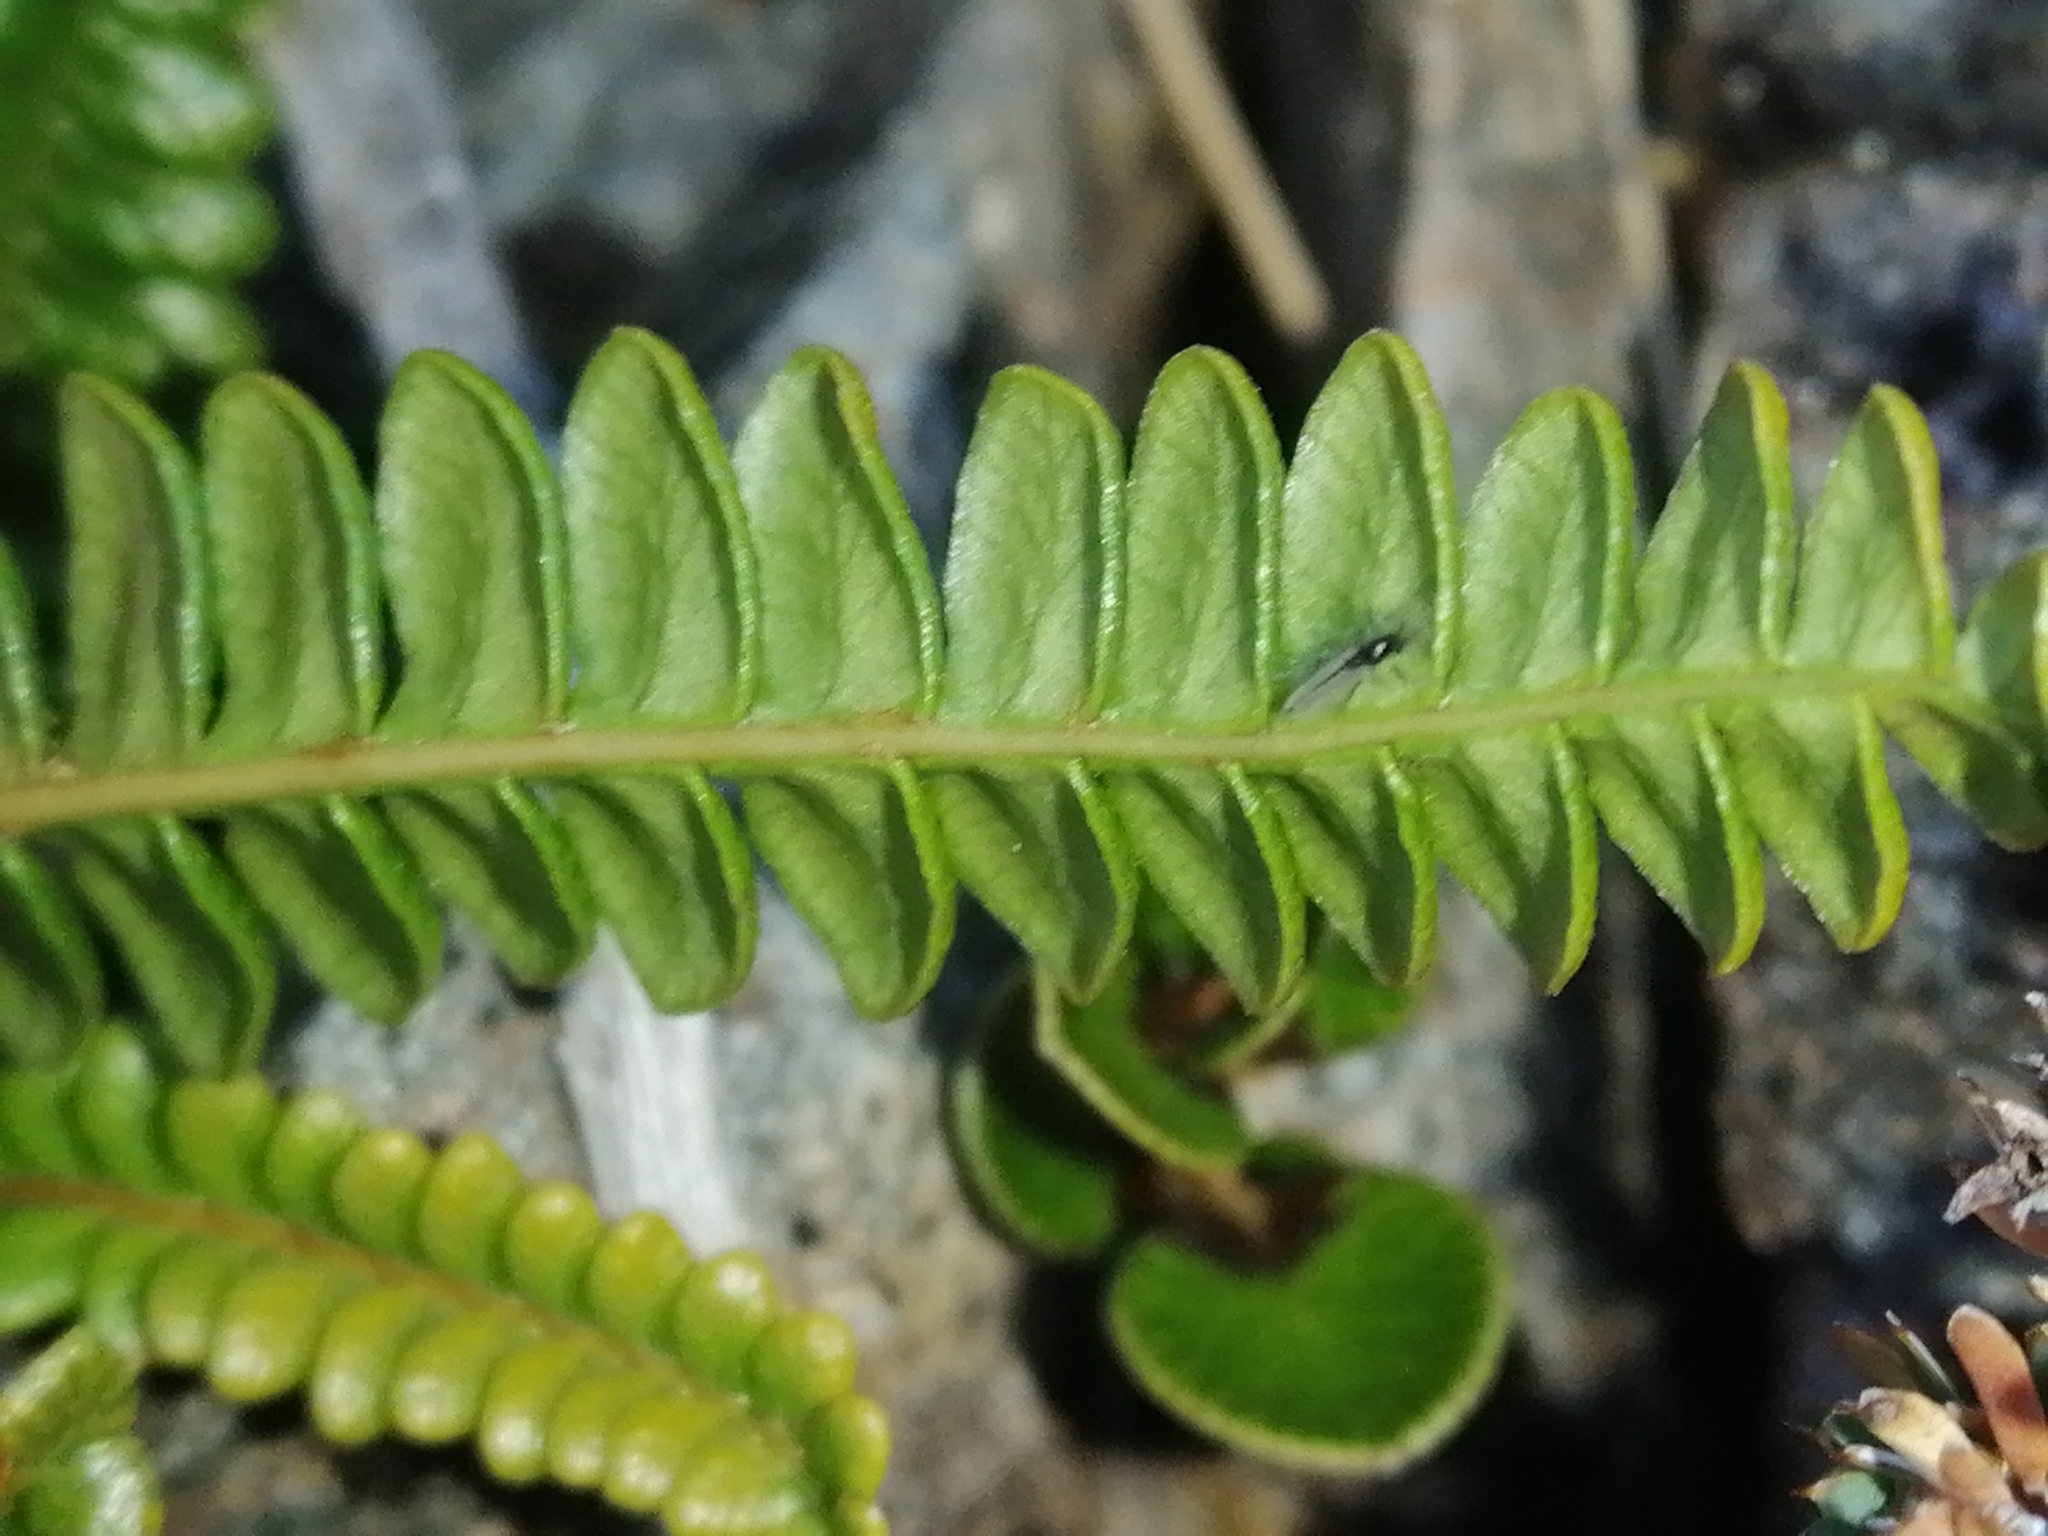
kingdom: Plantae
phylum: Tracheophyta
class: Polypodiopsida
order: Polypodiales
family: Blechnaceae
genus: Austroblechnum
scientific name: Austroblechnum penna-marina
